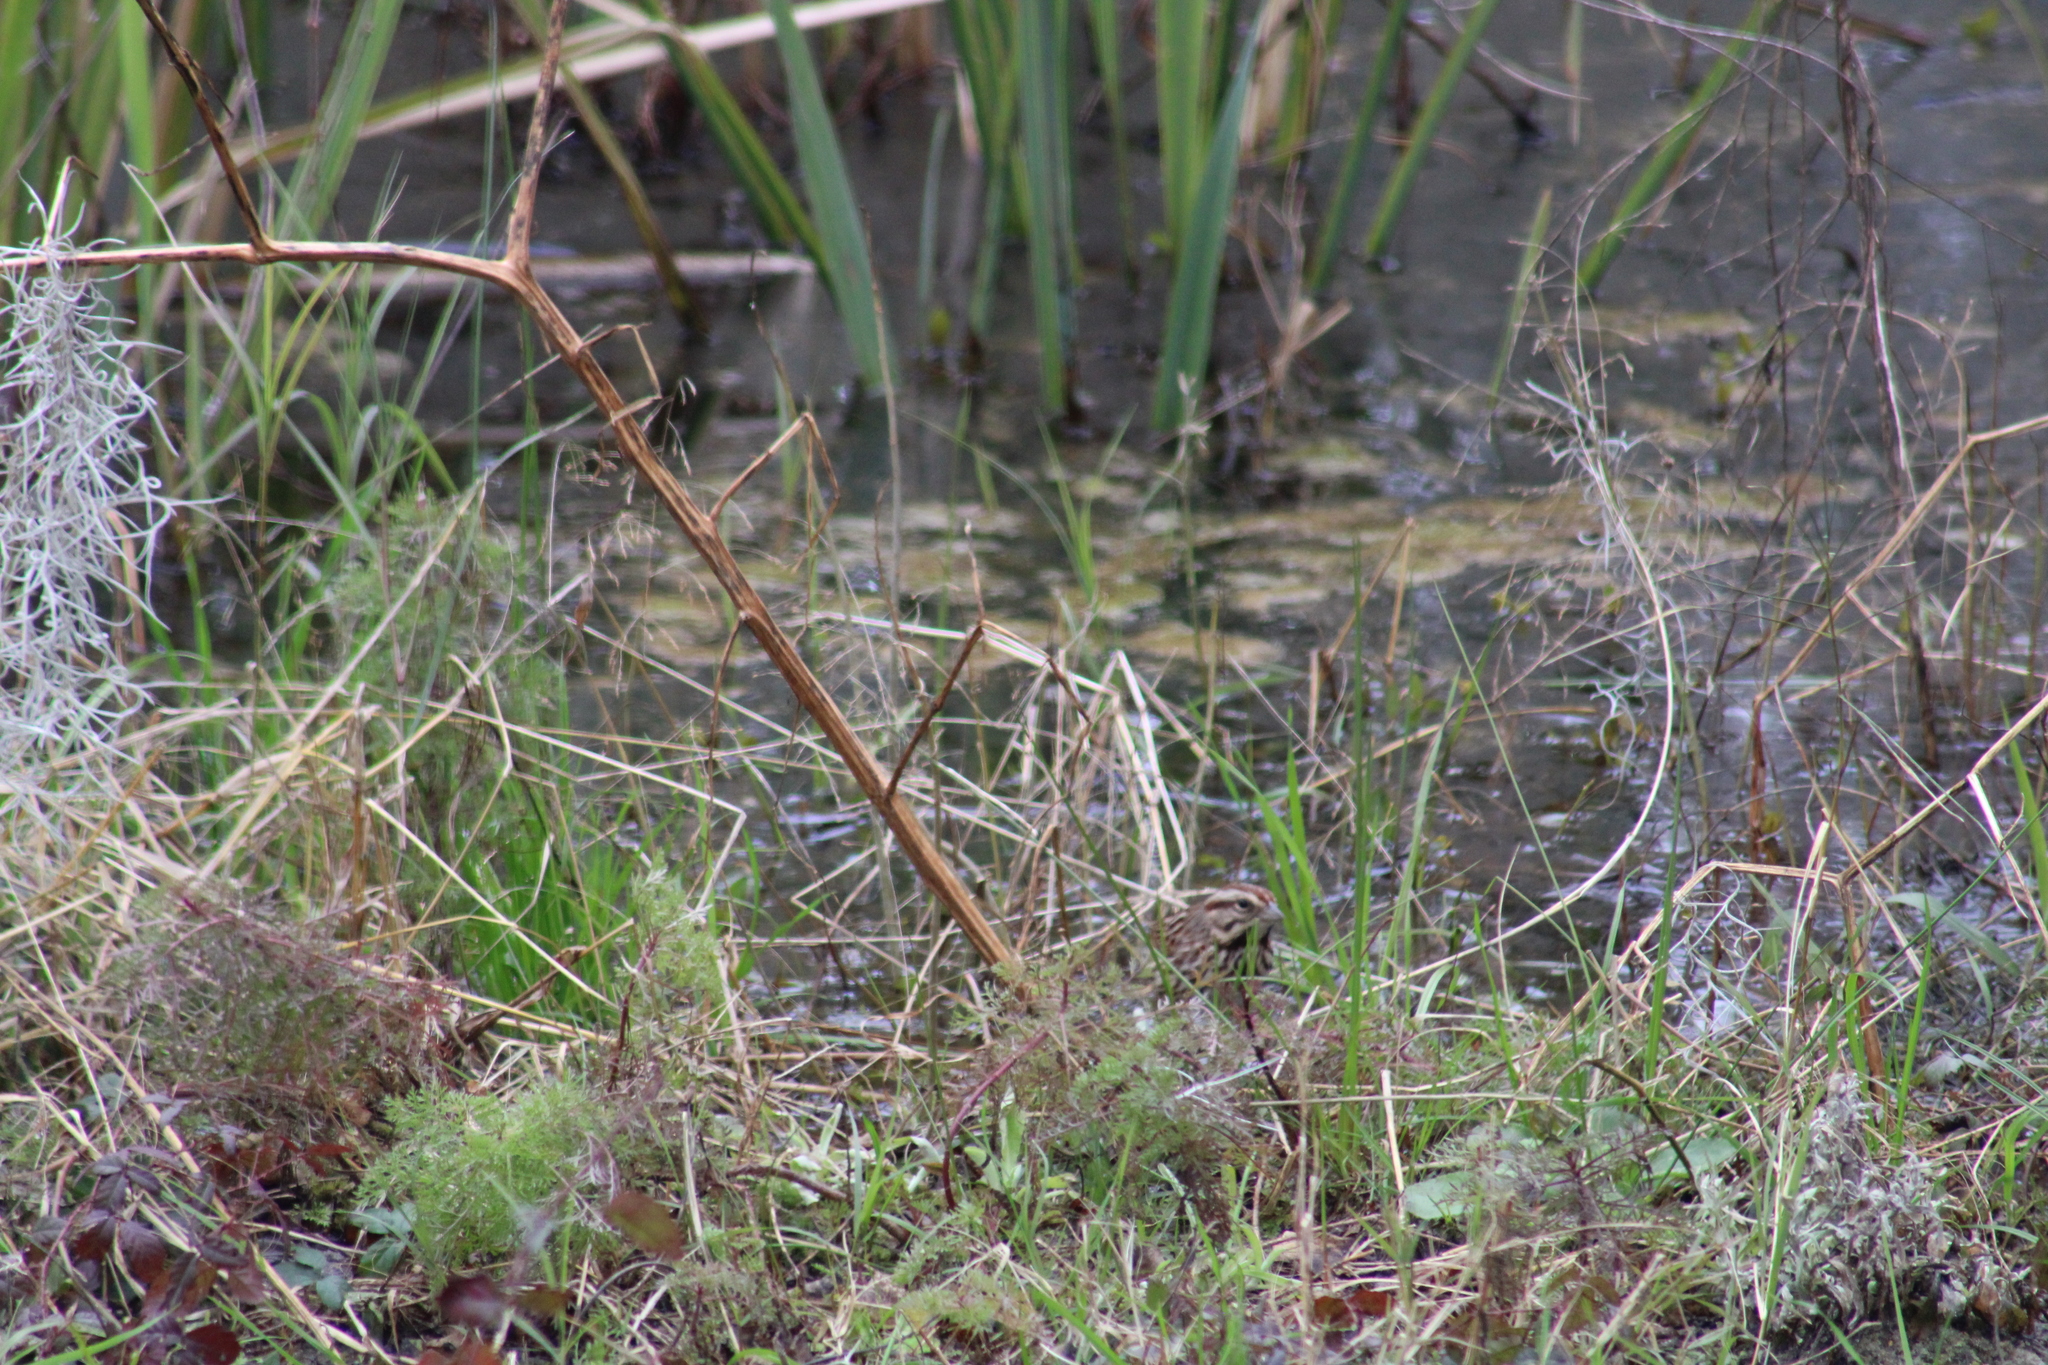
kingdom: Animalia
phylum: Chordata
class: Aves
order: Passeriformes
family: Passerellidae
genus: Melospiza
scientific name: Melospiza melodia
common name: Song sparrow
